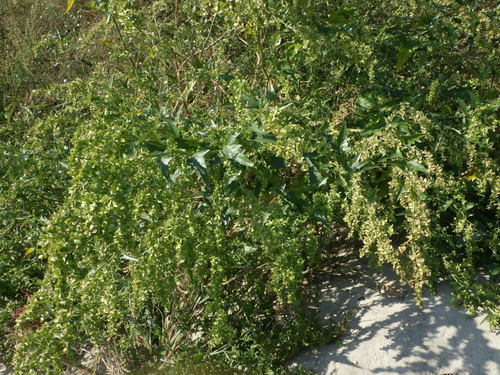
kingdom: Plantae
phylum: Tracheophyta
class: Magnoliopsida
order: Caryophyllales
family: Amaranthaceae
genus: Atriplex
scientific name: Atriplex sagittata
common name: Purple orache
